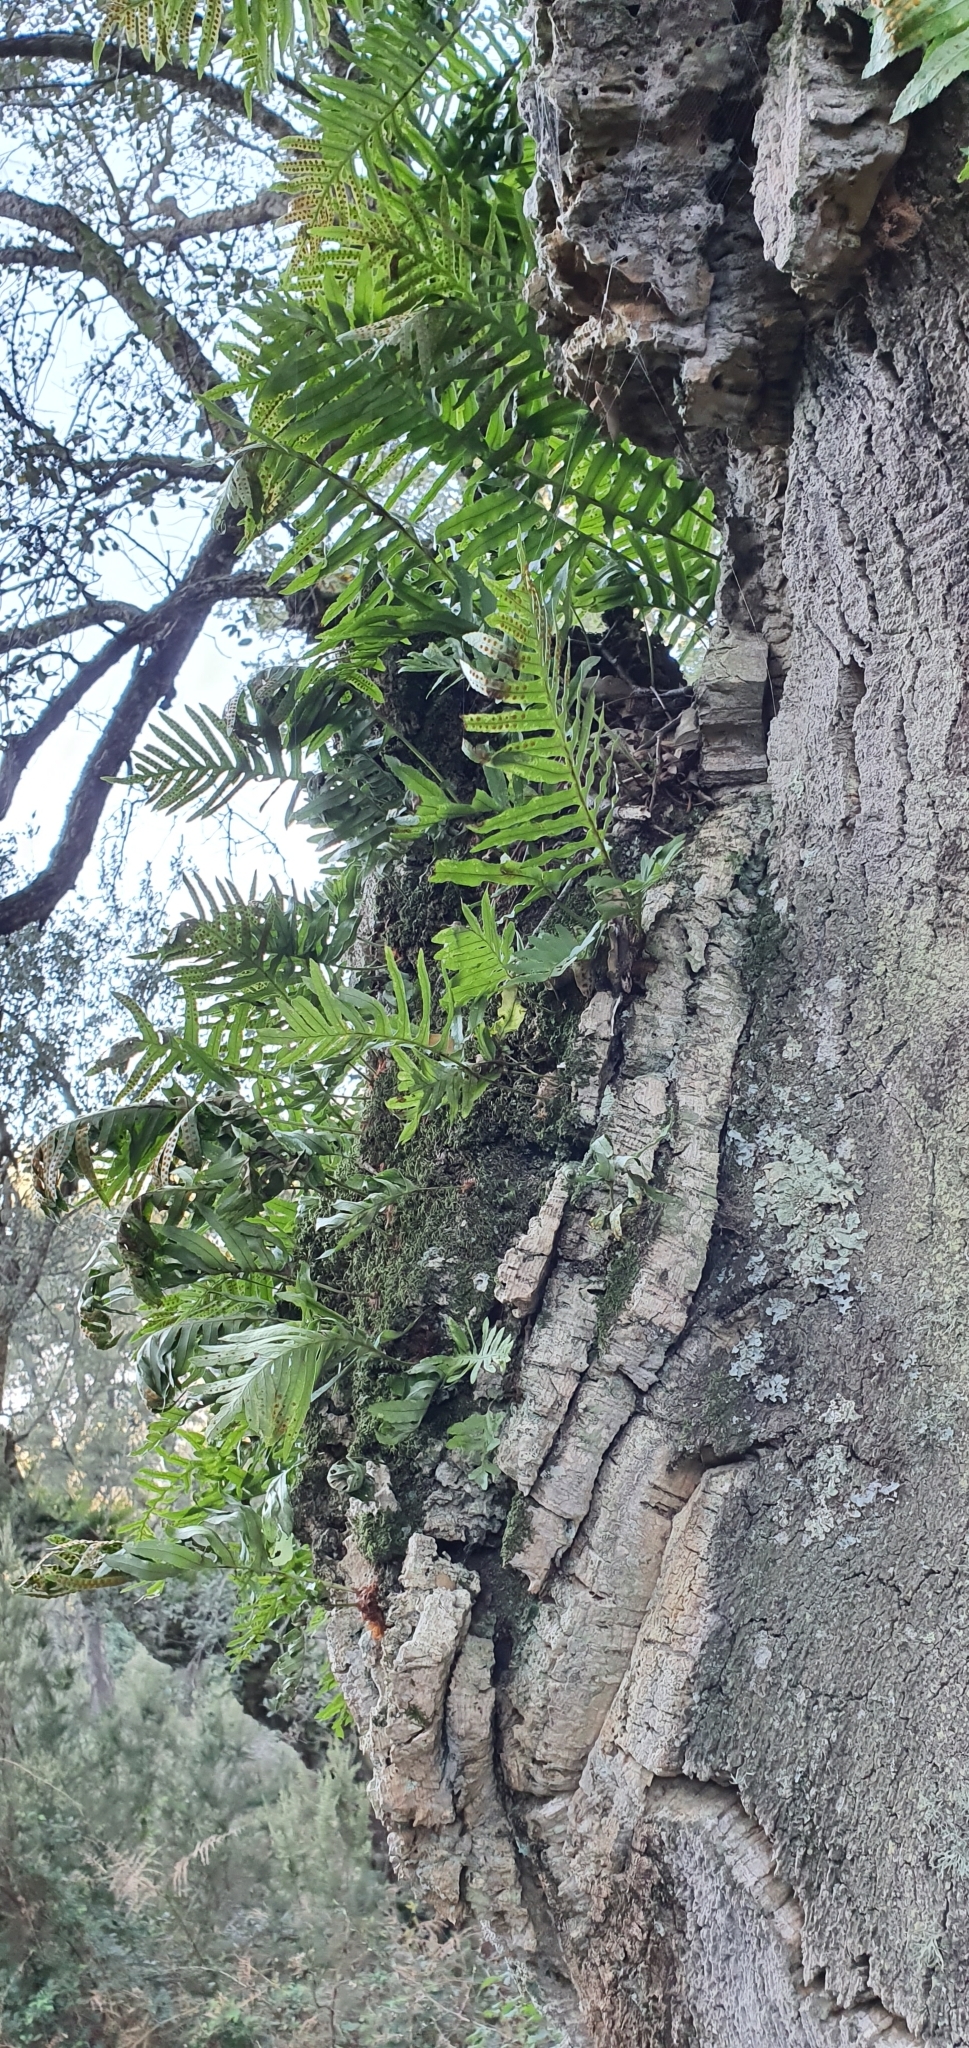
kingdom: Plantae
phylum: Tracheophyta
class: Polypodiopsida
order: Polypodiales
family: Polypodiaceae
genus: Polypodium
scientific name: Polypodium cambricum
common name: Southern polypody
